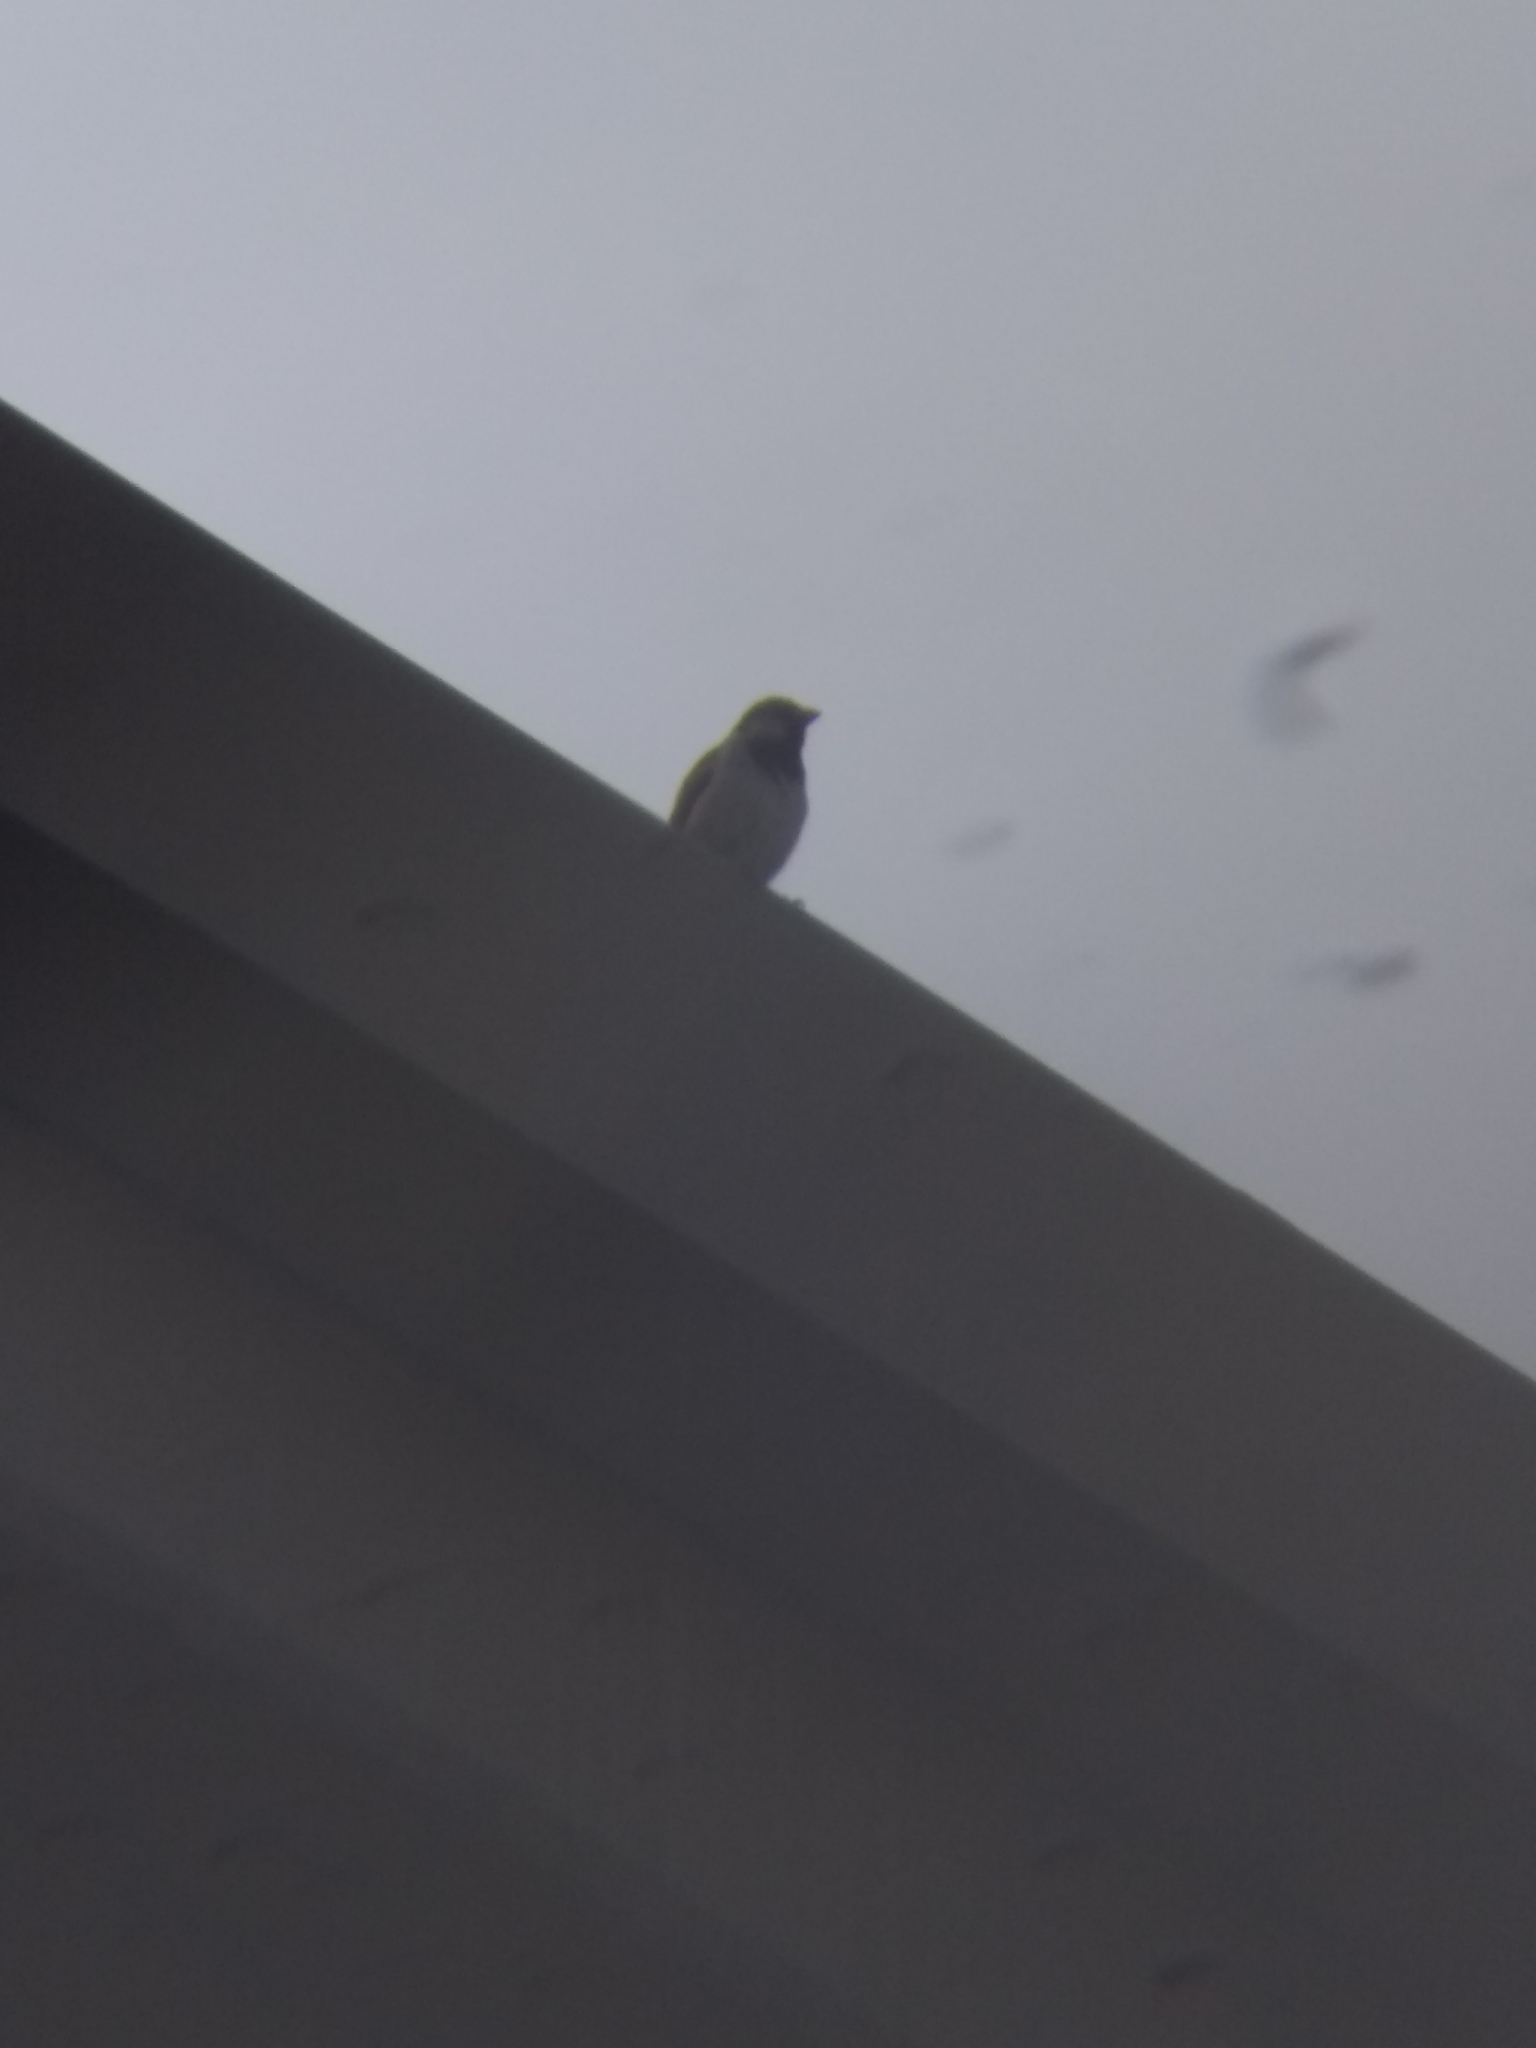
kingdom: Animalia
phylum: Chordata
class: Aves
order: Passeriformes
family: Passeridae
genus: Passer
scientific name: Passer domesticus
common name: House sparrow
